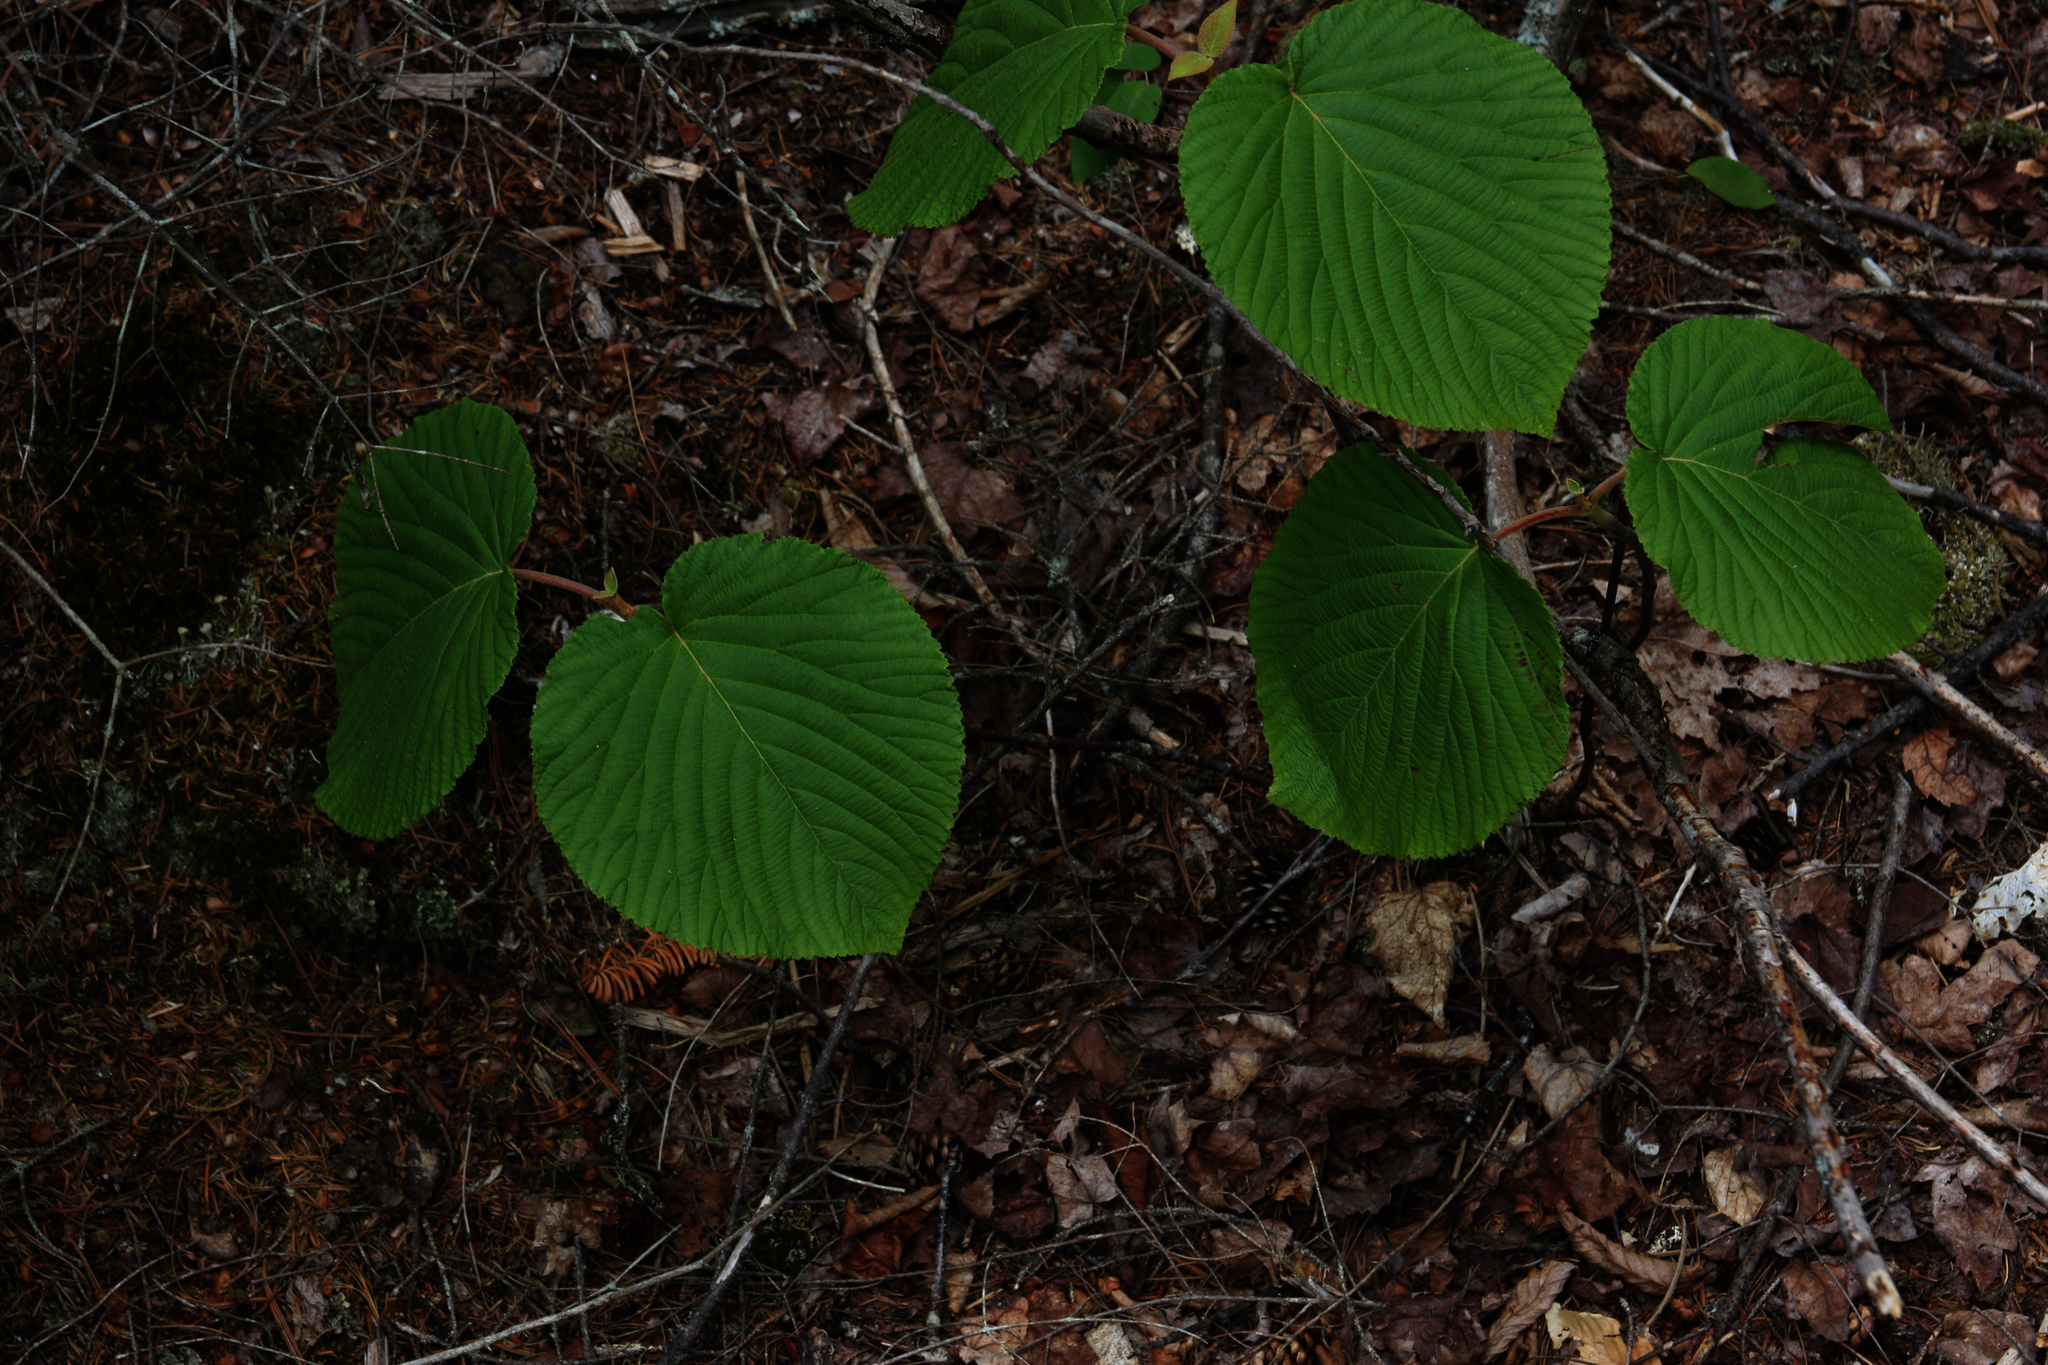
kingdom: Plantae
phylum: Tracheophyta
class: Magnoliopsida
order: Dipsacales
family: Viburnaceae
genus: Viburnum
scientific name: Viburnum lantanoides
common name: Hobblebush
